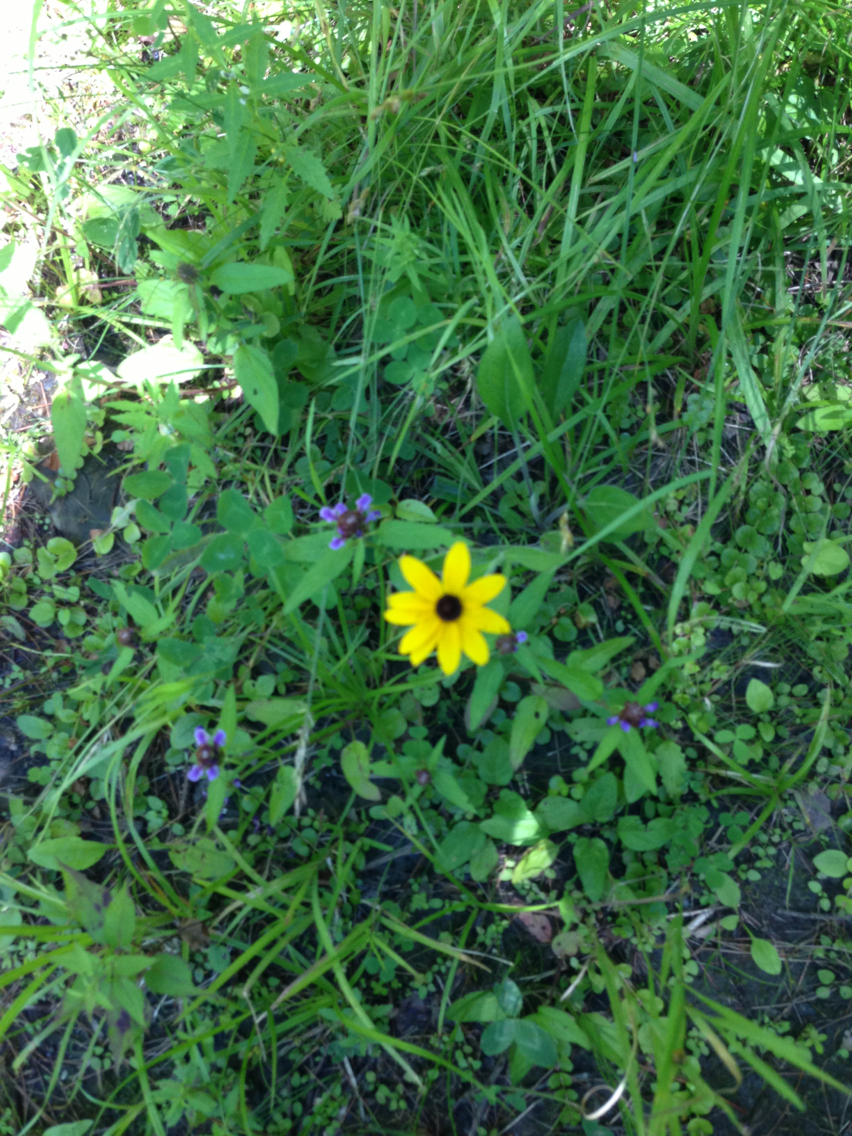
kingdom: Plantae
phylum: Tracheophyta
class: Magnoliopsida
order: Asterales
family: Asteraceae
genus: Rudbeckia
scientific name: Rudbeckia hirta
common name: Black-eyed-susan
